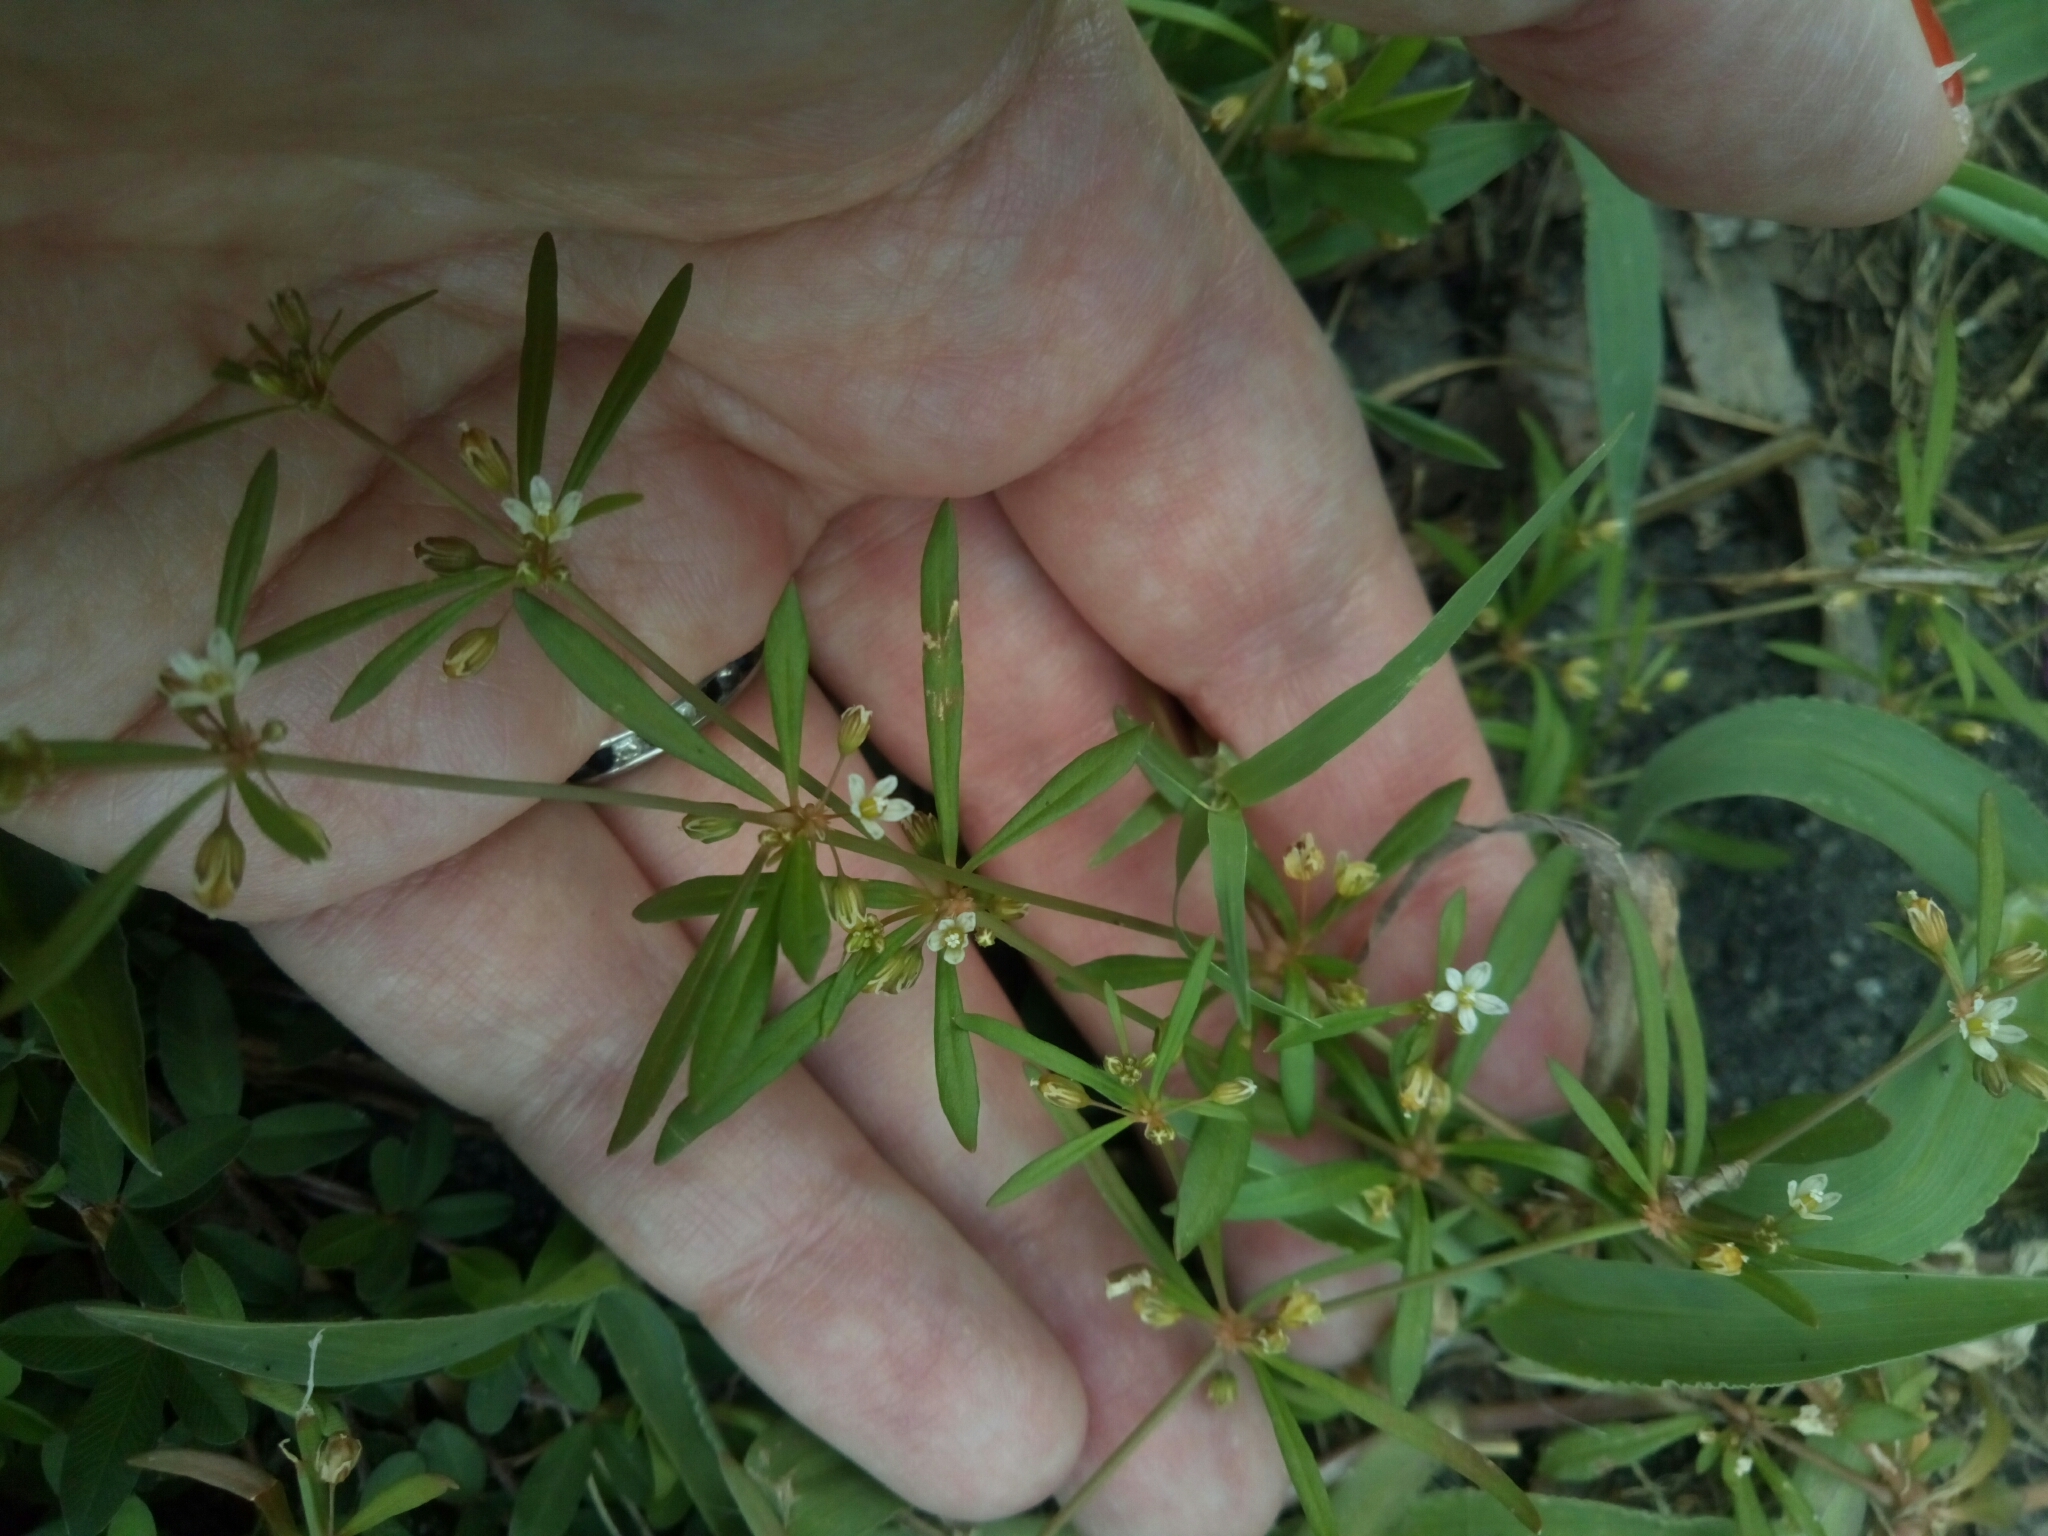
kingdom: Plantae
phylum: Tracheophyta
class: Magnoliopsida
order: Caryophyllales
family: Molluginaceae
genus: Mollugo
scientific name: Mollugo verticillata
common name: Green carpetweed
